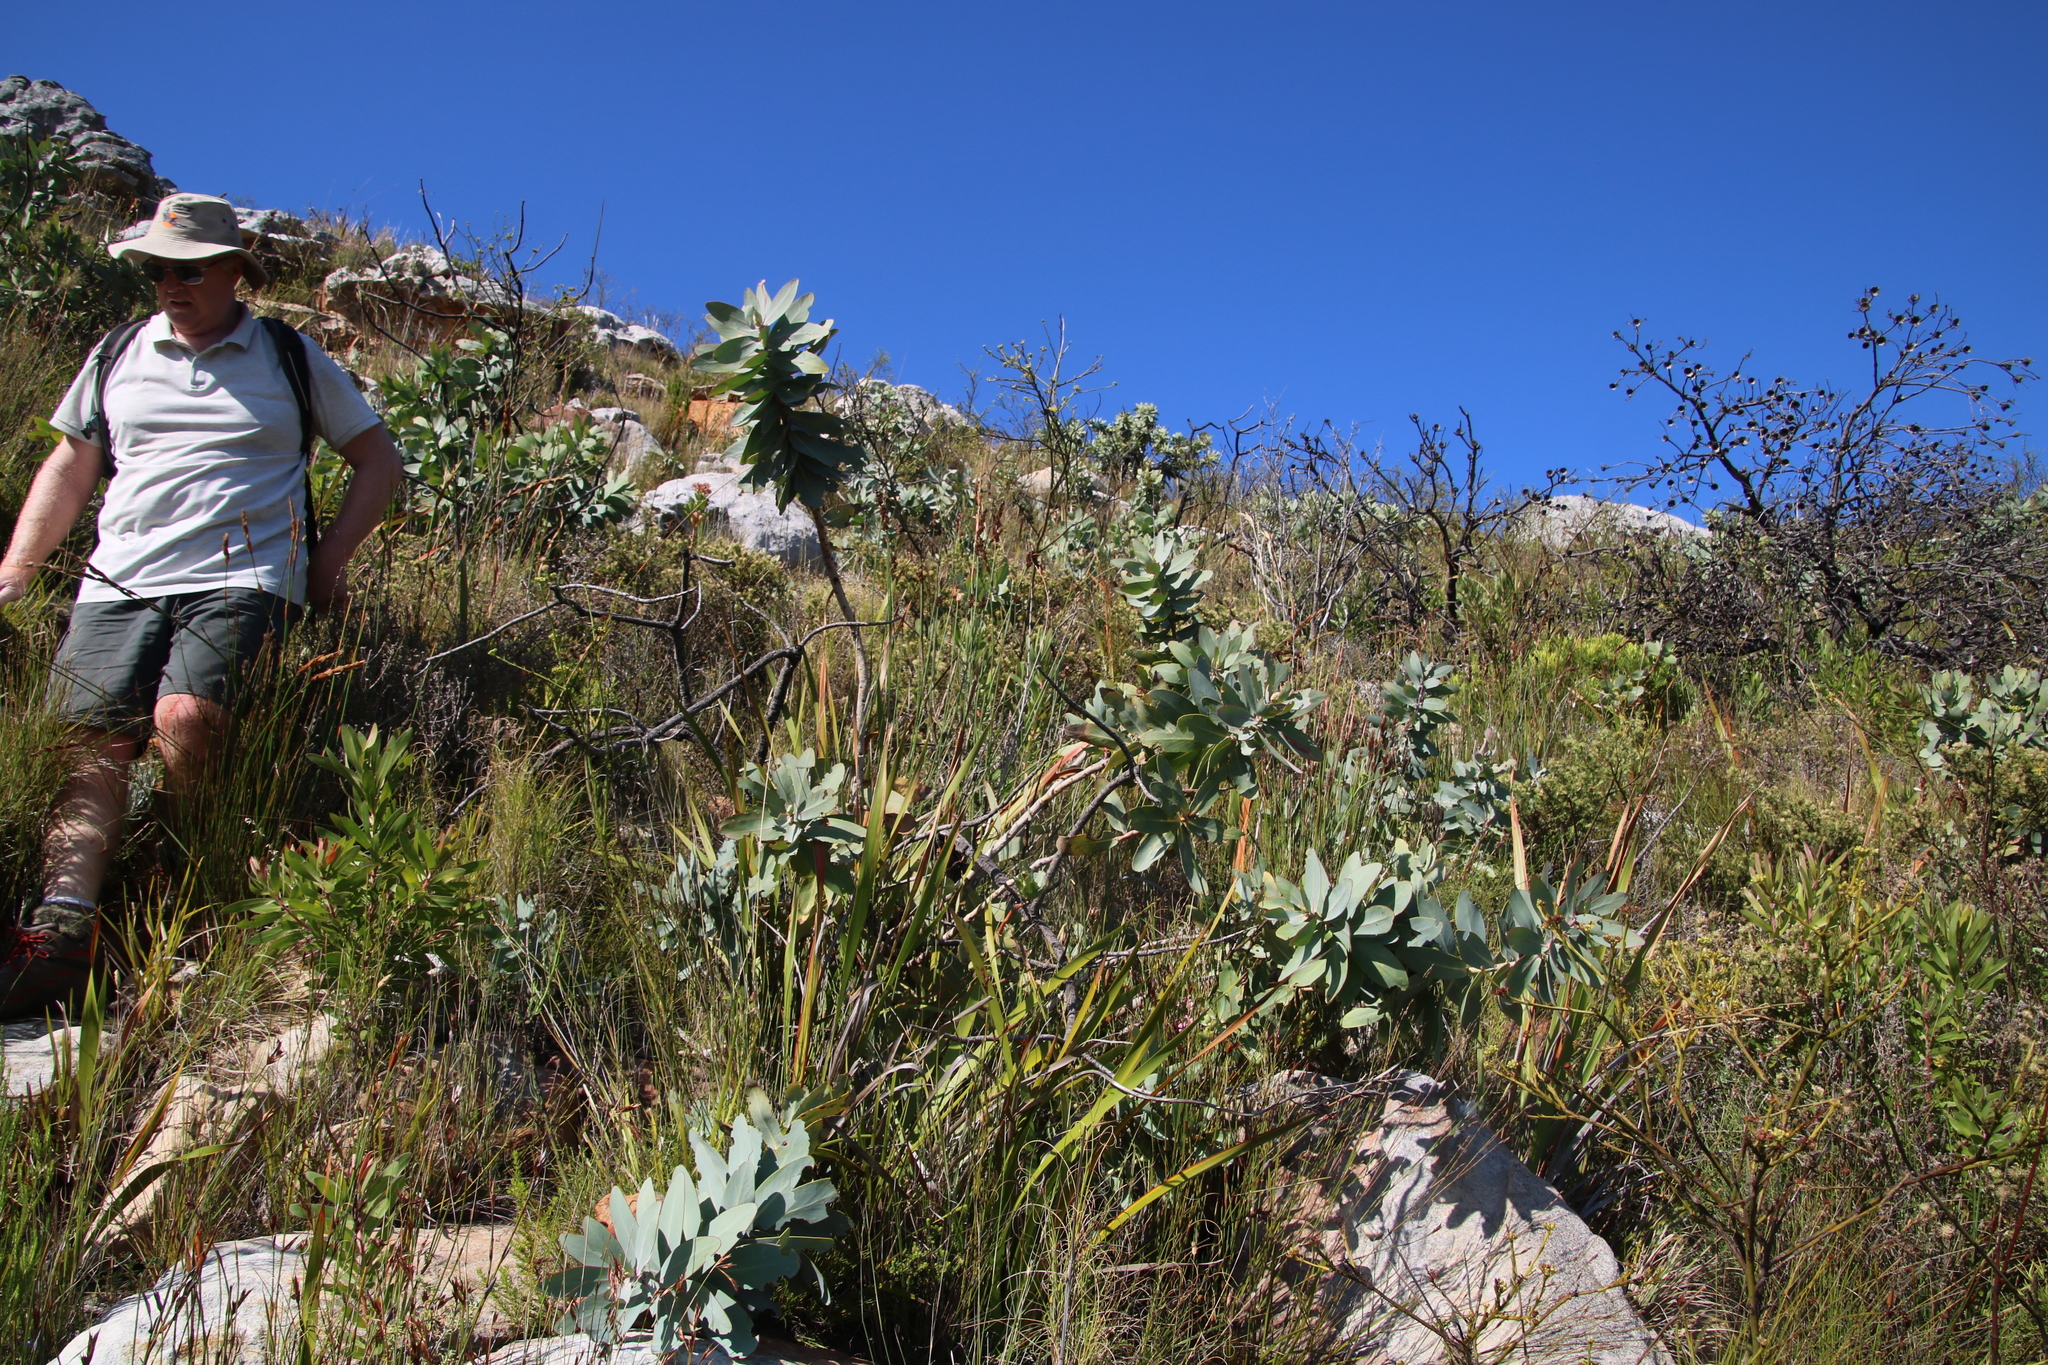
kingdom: Plantae
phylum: Tracheophyta
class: Magnoliopsida
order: Proteales
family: Proteaceae
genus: Protea
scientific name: Protea nitida
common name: Tree protea
